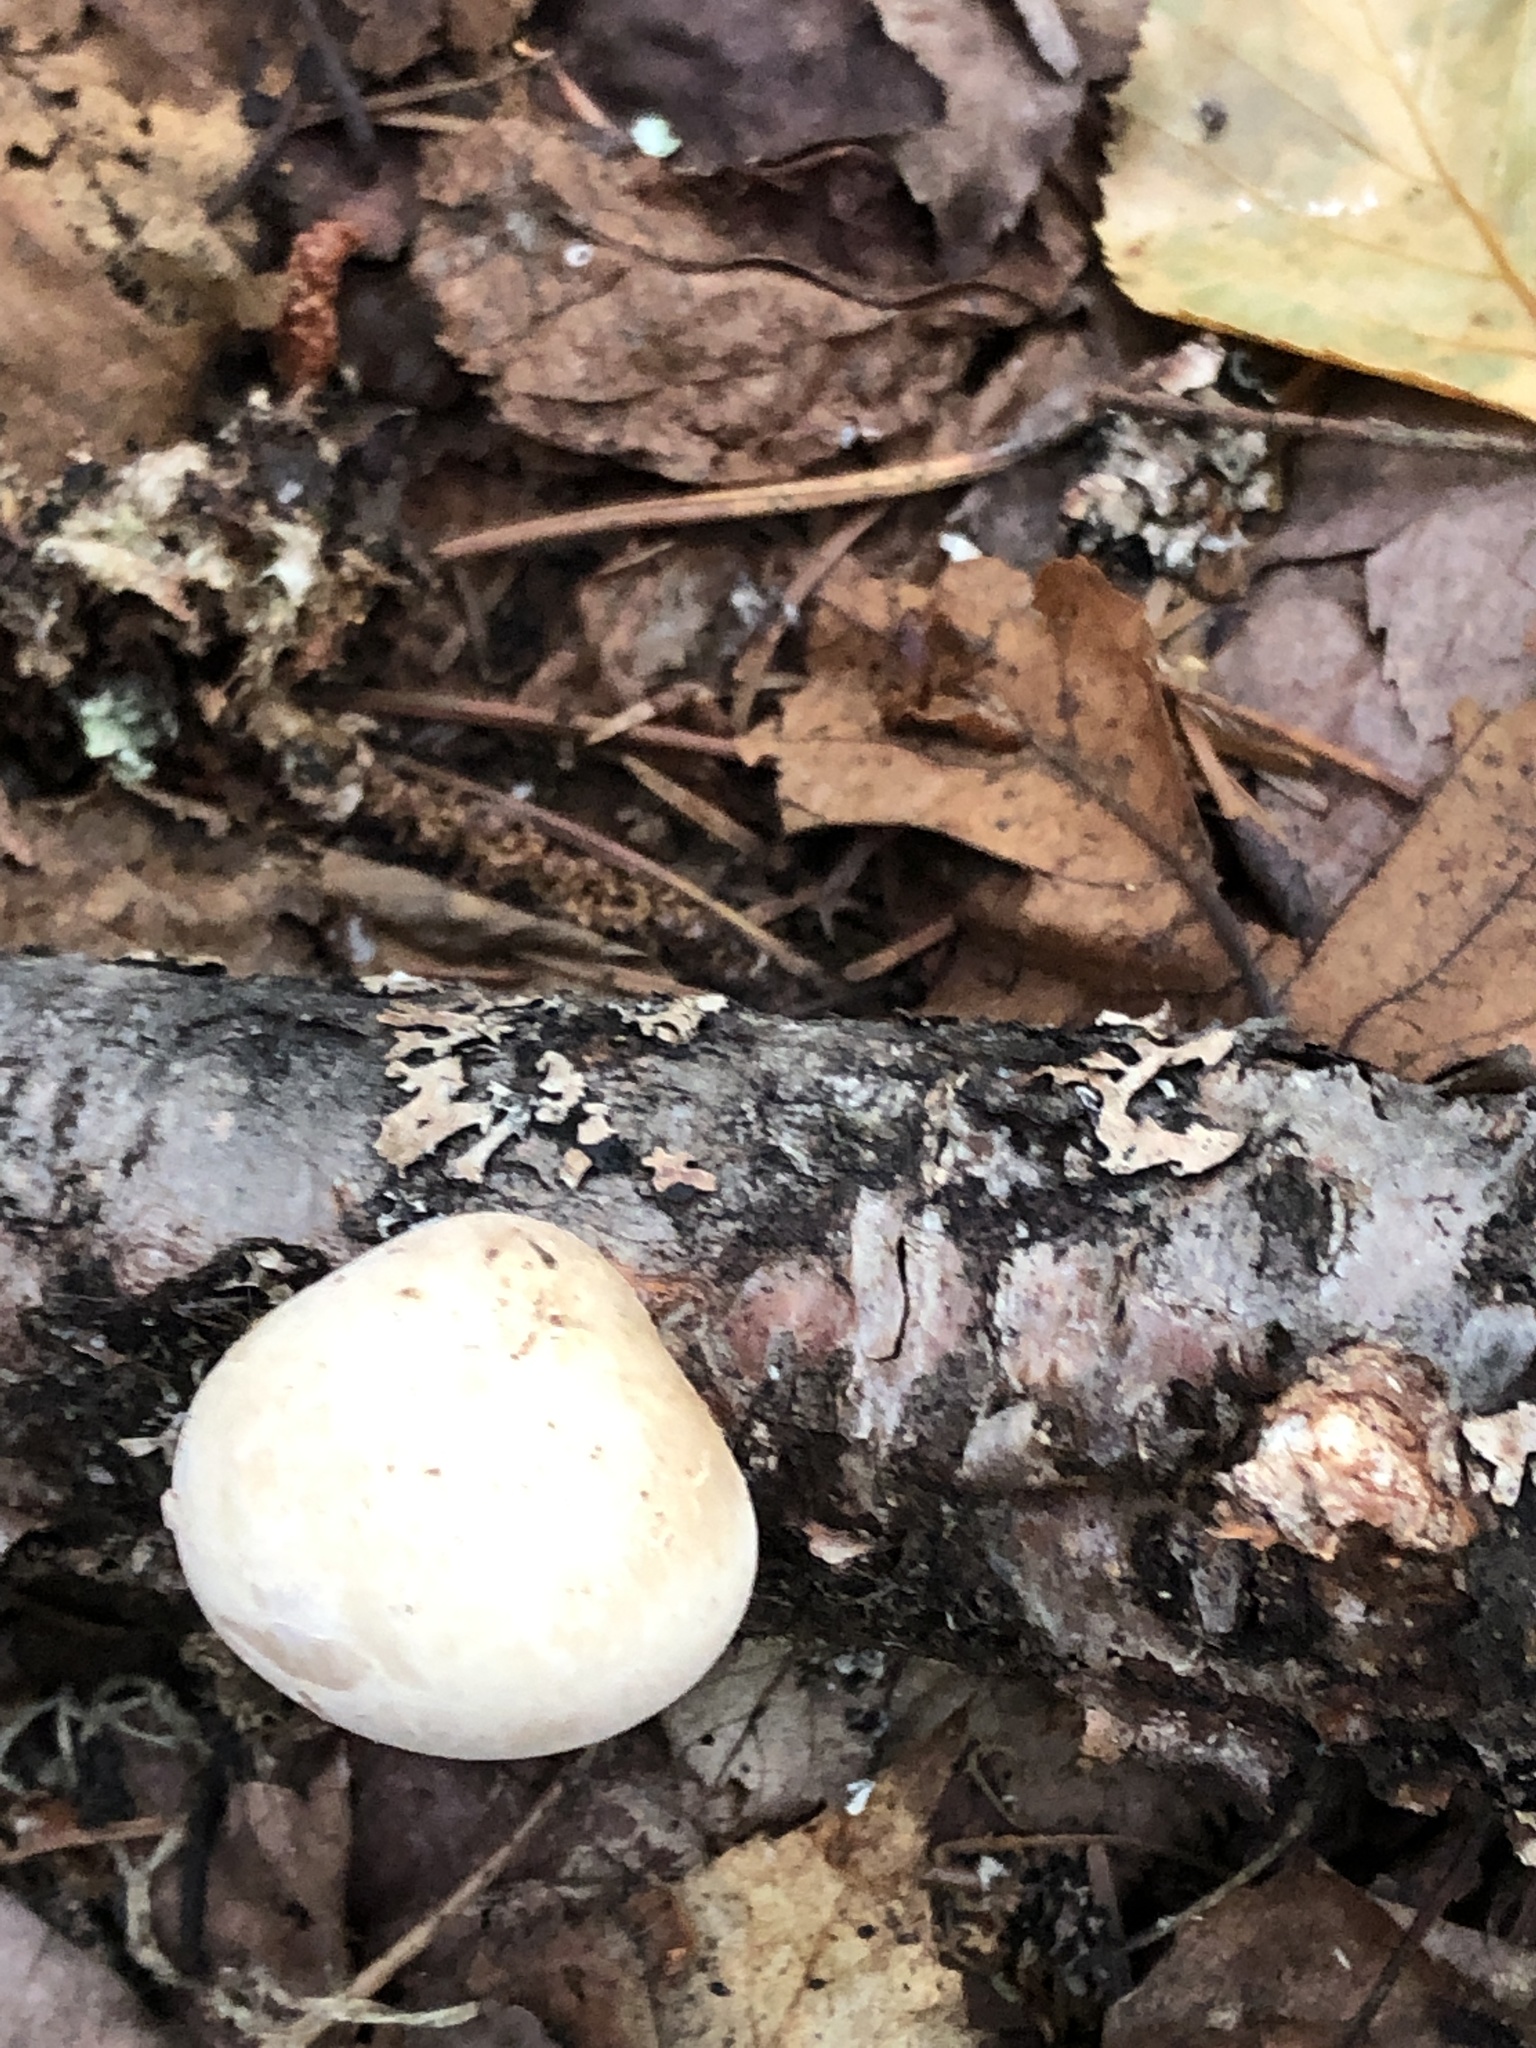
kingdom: Fungi
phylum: Basidiomycota
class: Agaricomycetes
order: Polyporales
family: Fomitopsidaceae
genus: Fomitopsis
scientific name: Fomitopsis betulina
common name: Birch polypore
